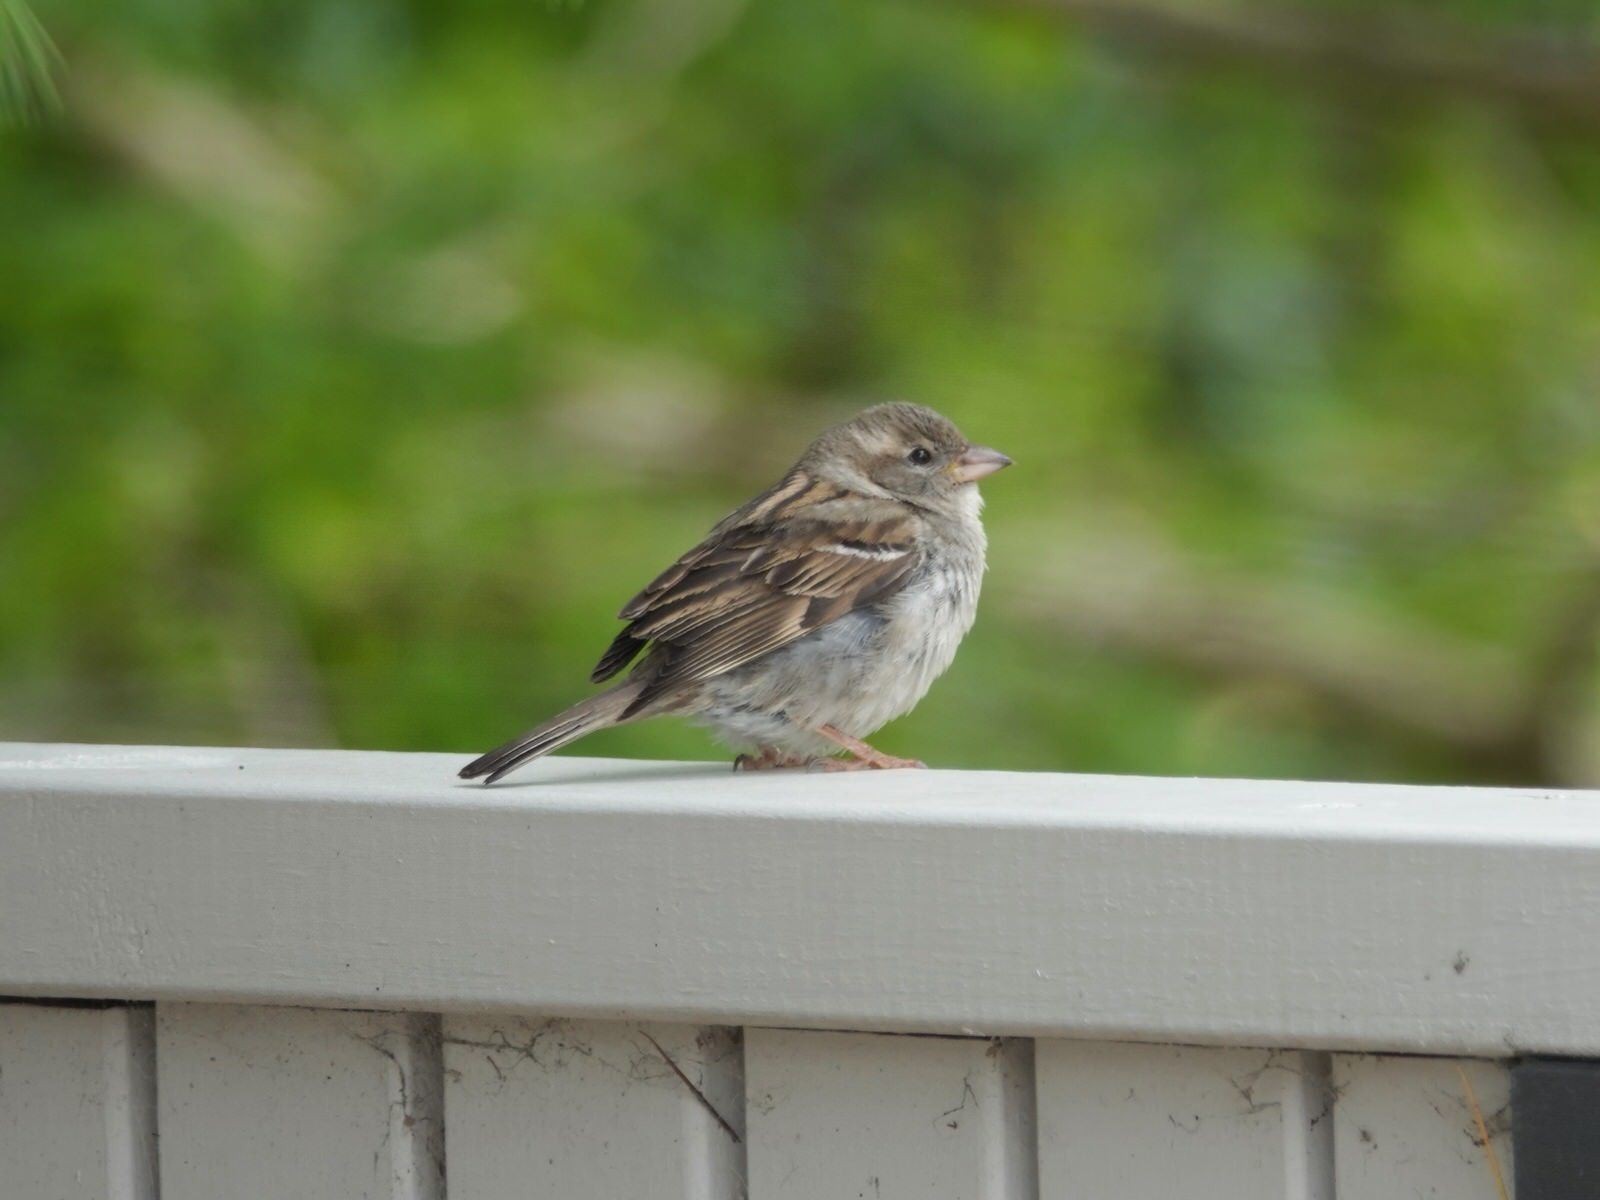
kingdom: Animalia
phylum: Chordata
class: Aves
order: Passeriformes
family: Passeridae
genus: Passer
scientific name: Passer domesticus
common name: House sparrow
